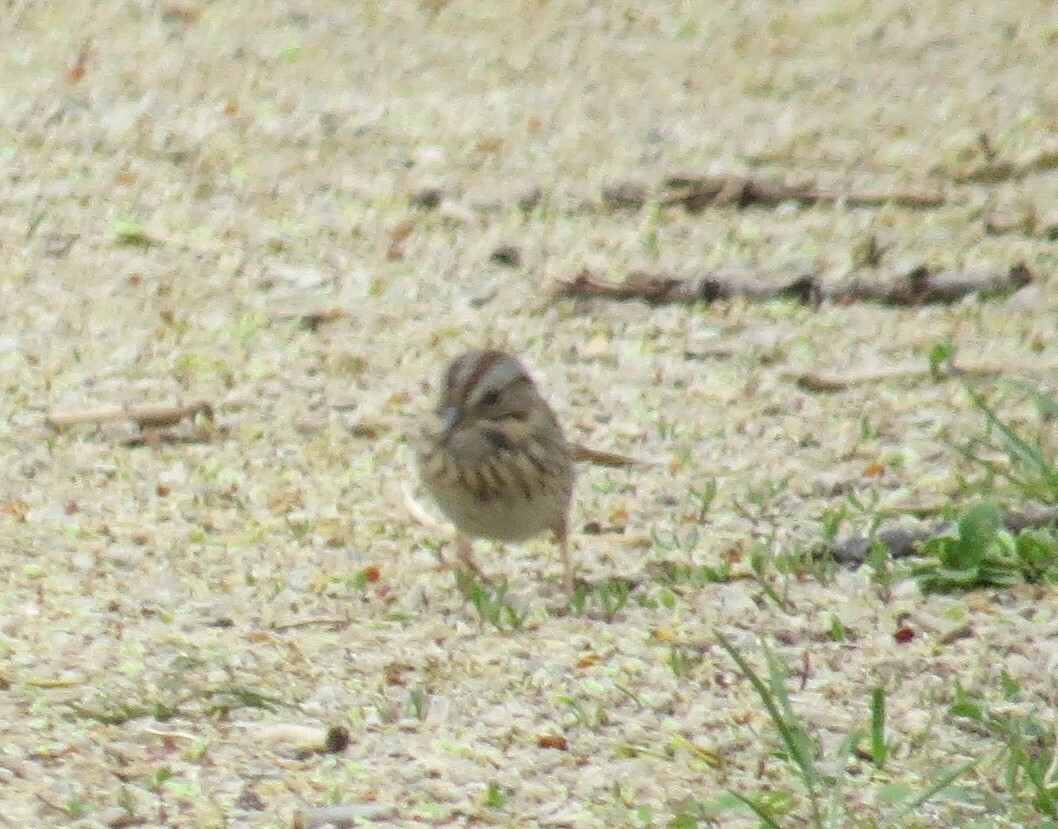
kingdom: Animalia
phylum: Chordata
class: Aves
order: Passeriformes
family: Passerellidae
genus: Melospiza
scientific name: Melospiza lincolnii
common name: Lincoln's sparrow
